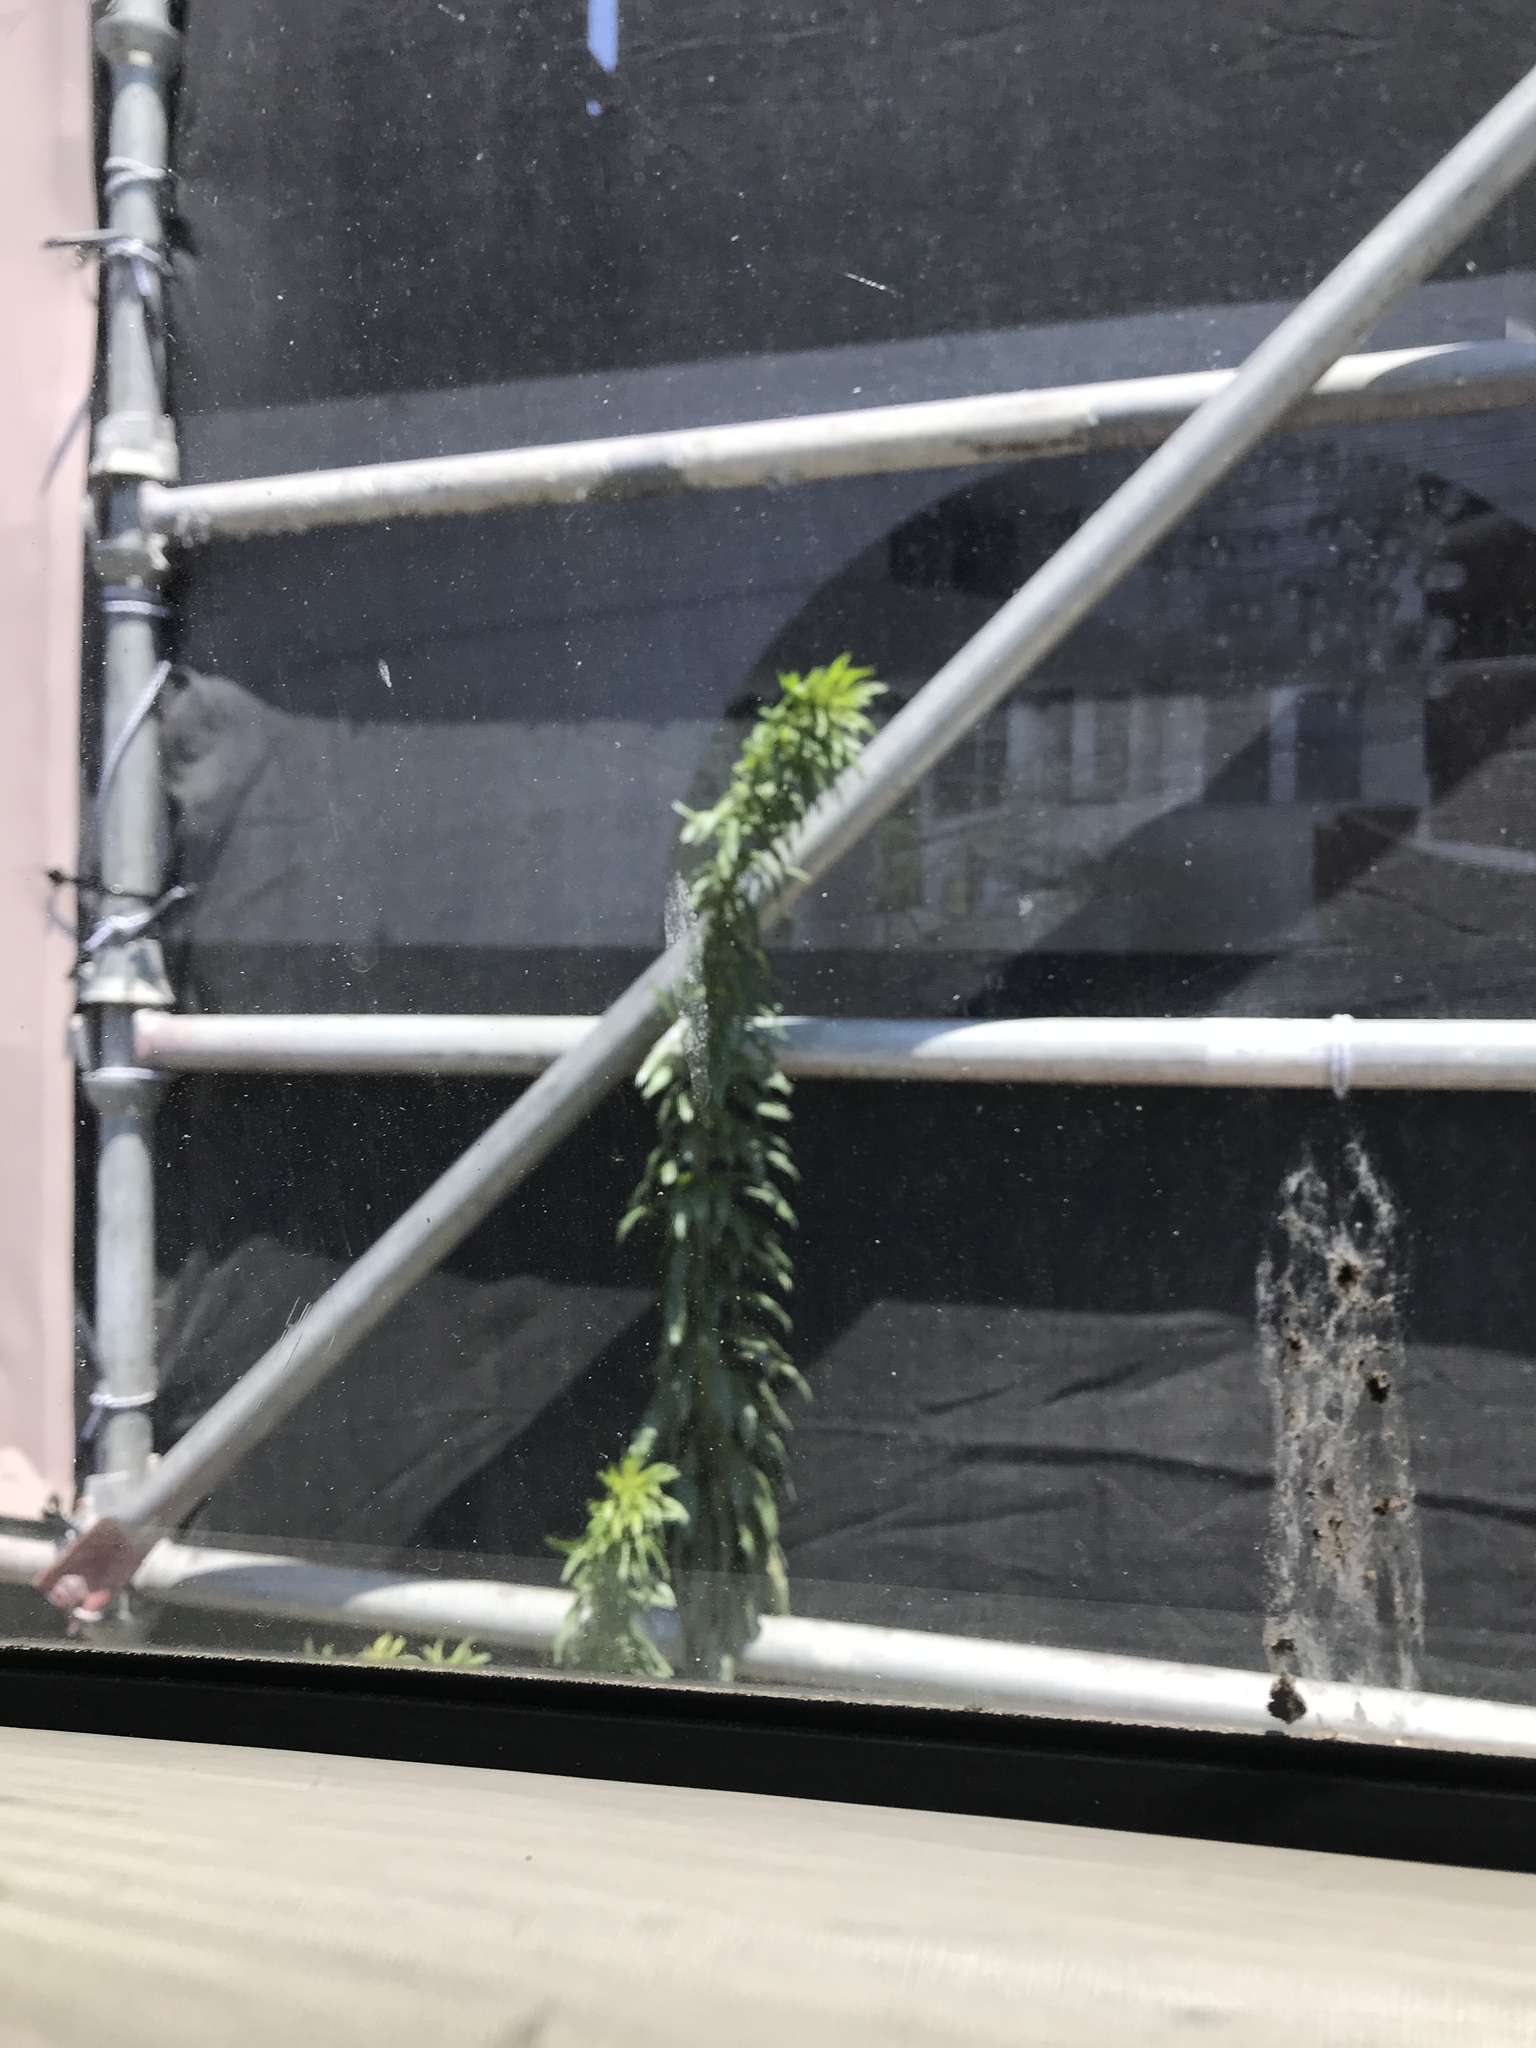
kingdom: Plantae
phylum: Tracheophyta
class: Magnoliopsida
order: Asterales
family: Asteraceae
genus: Erigeron
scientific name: Erigeron canadensis
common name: Canadian fleabane
